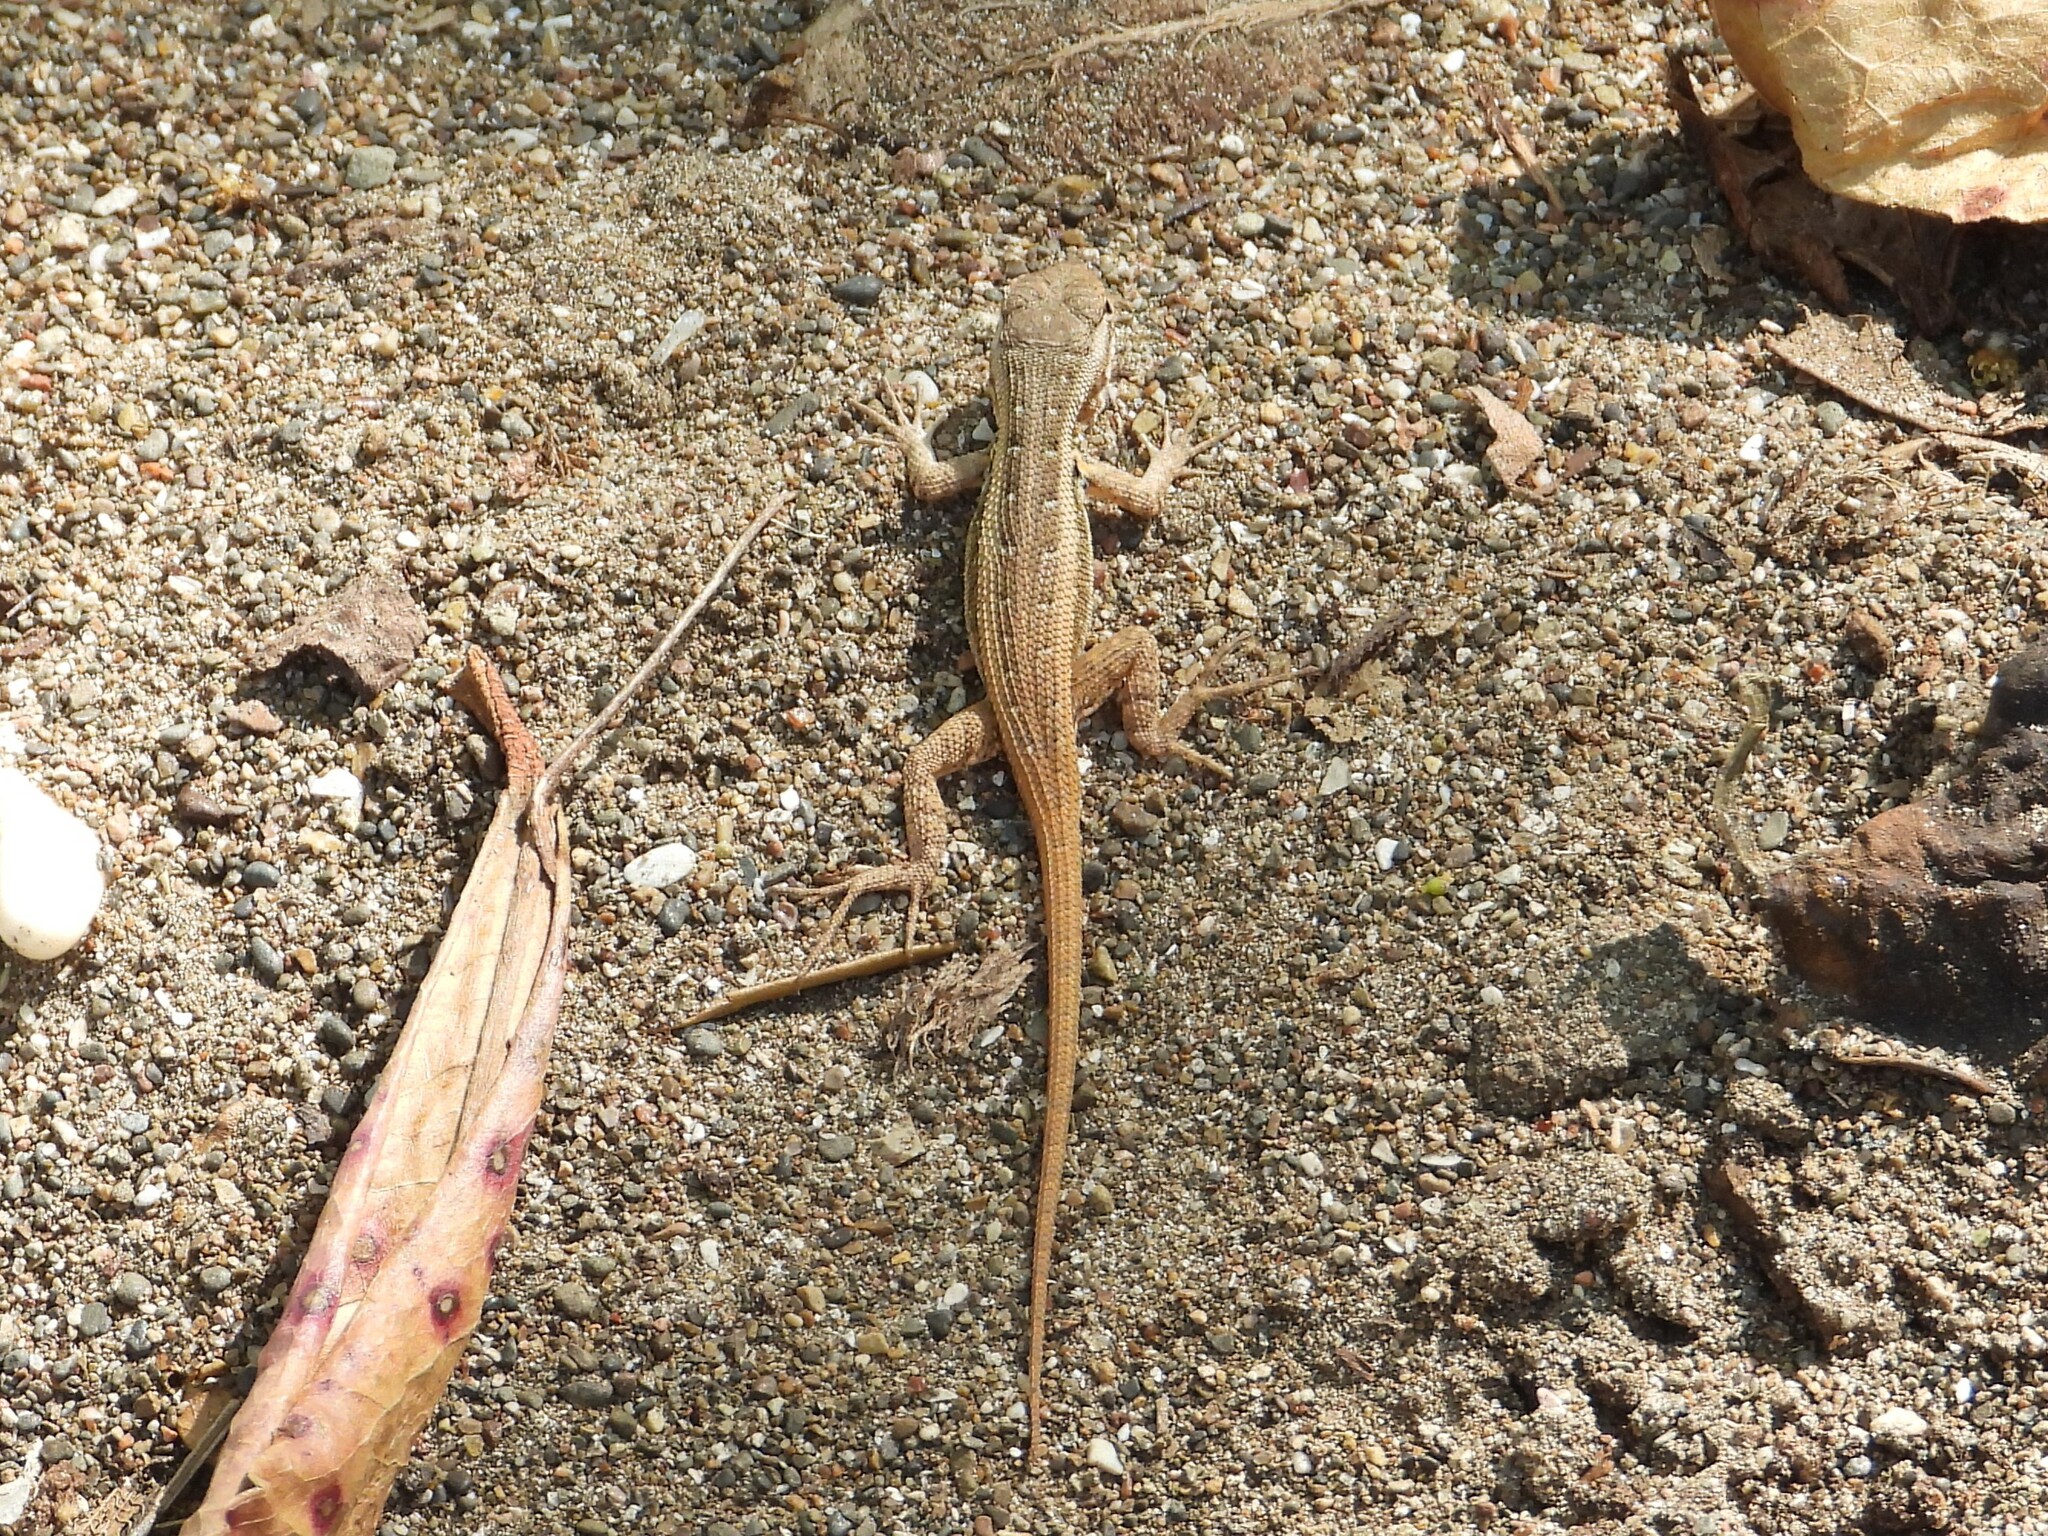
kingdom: Animalia
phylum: Chordata
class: Squamata
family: Phrynosomatidae
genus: Sceloporus
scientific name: Sceloporus variabilis
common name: Rosebelly lizard
